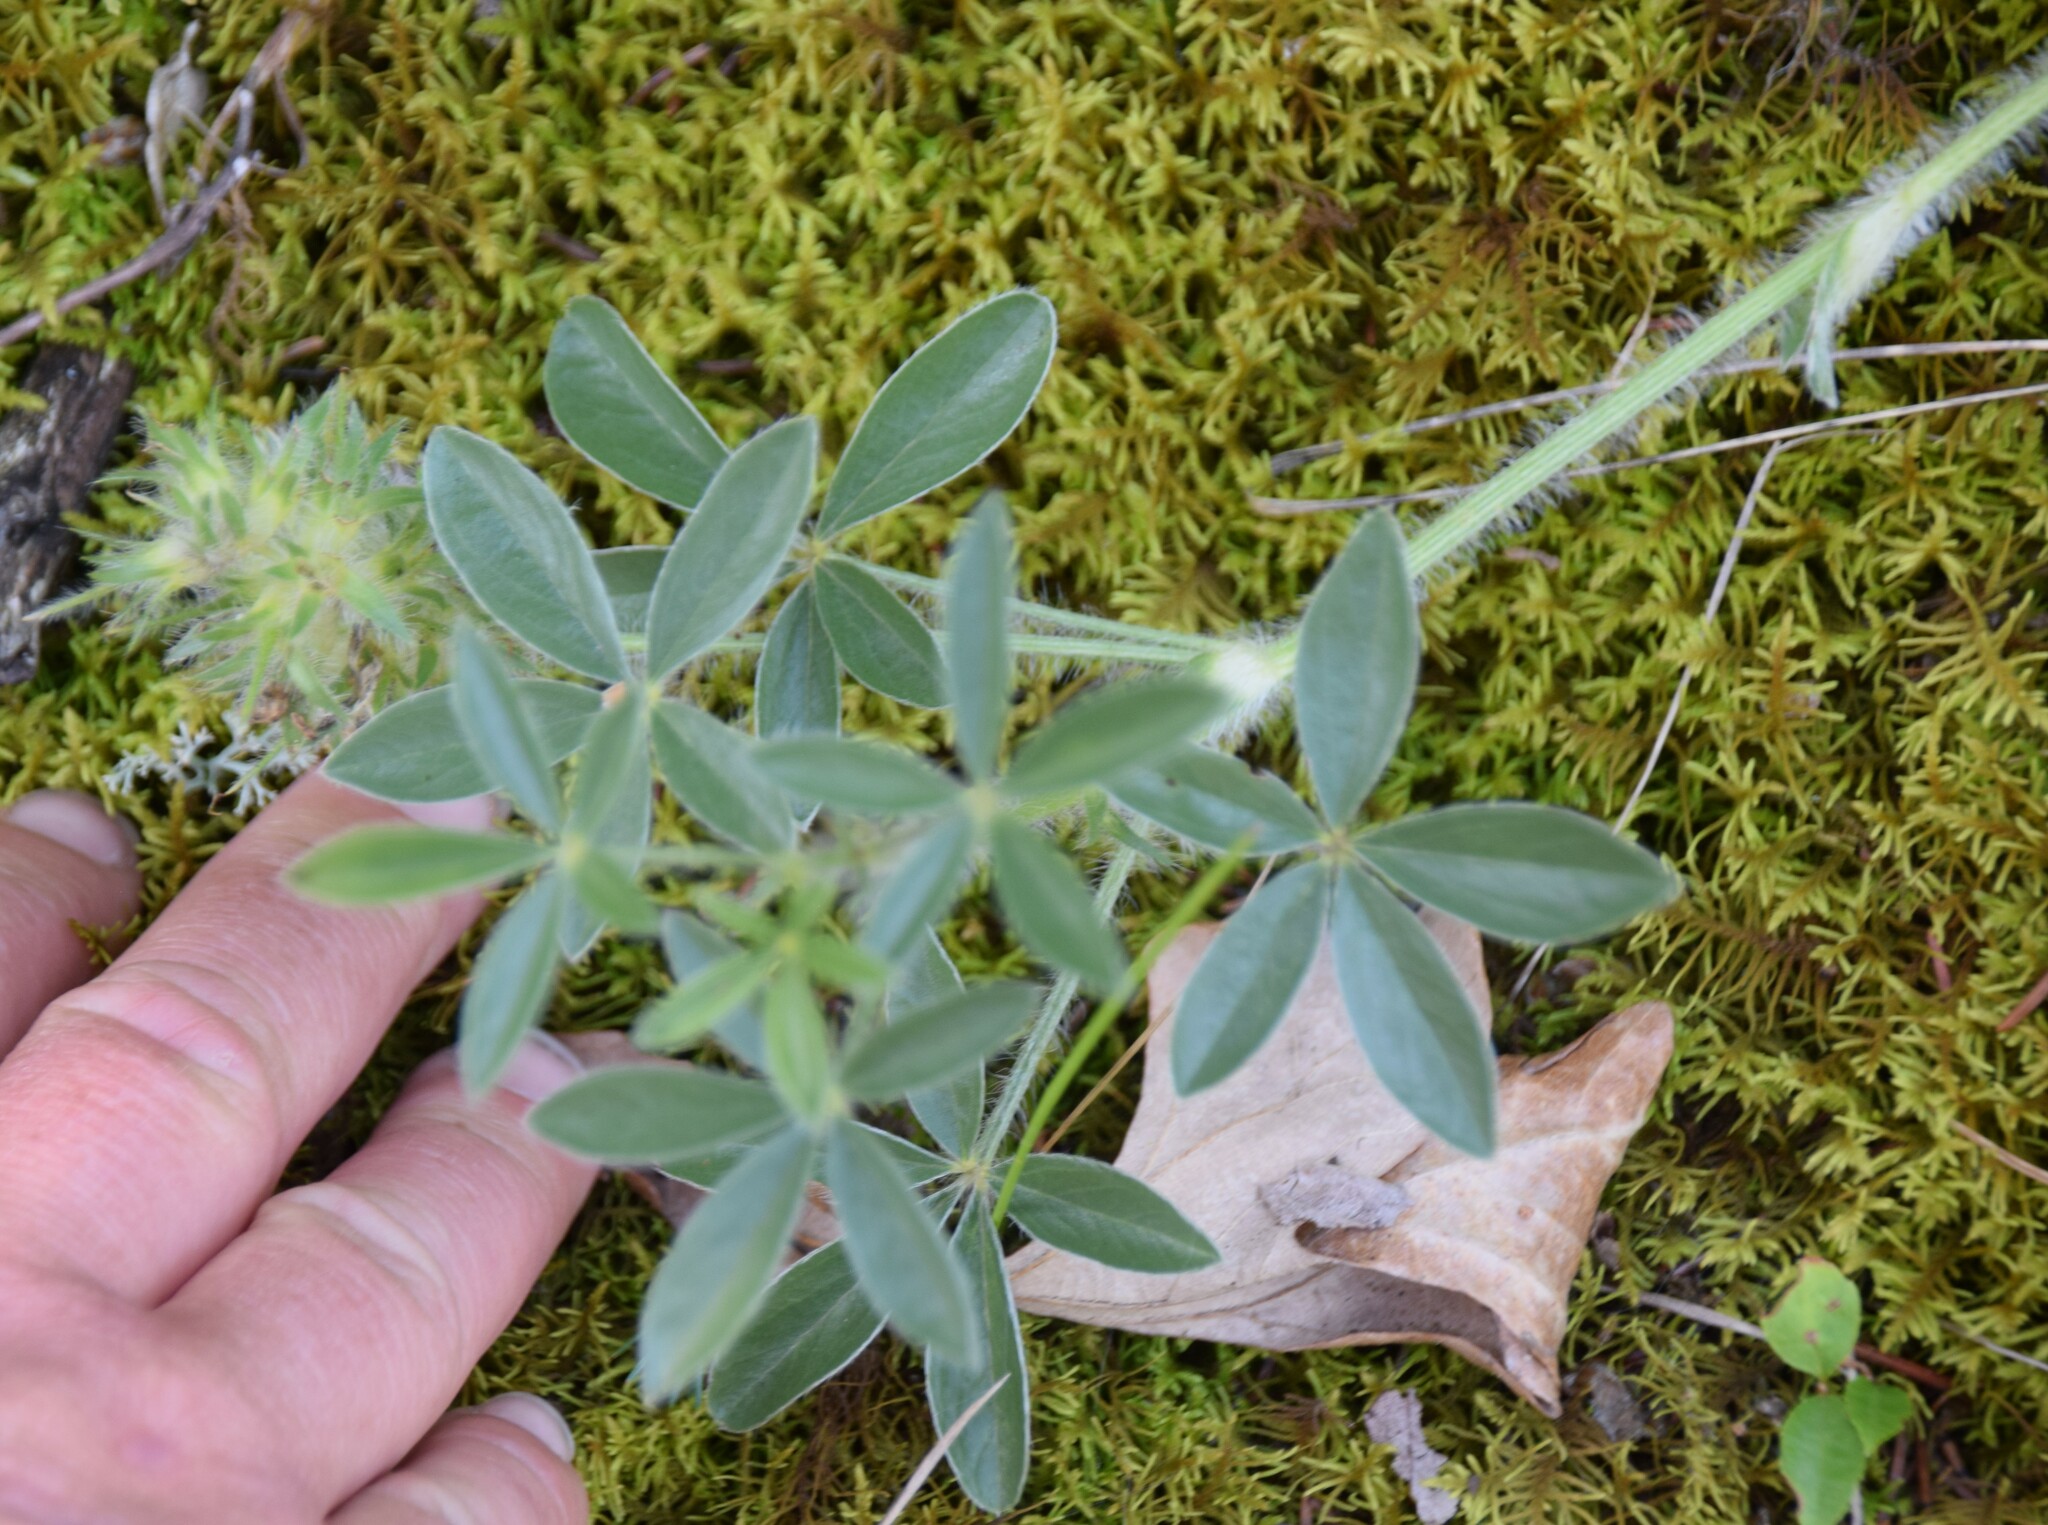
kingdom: Plantae
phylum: Tracheophyta
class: Magnoliopsida
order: Fabales
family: Fabaceae
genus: Pediomelum
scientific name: Pediomelum esculentum
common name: Indian-turnip
